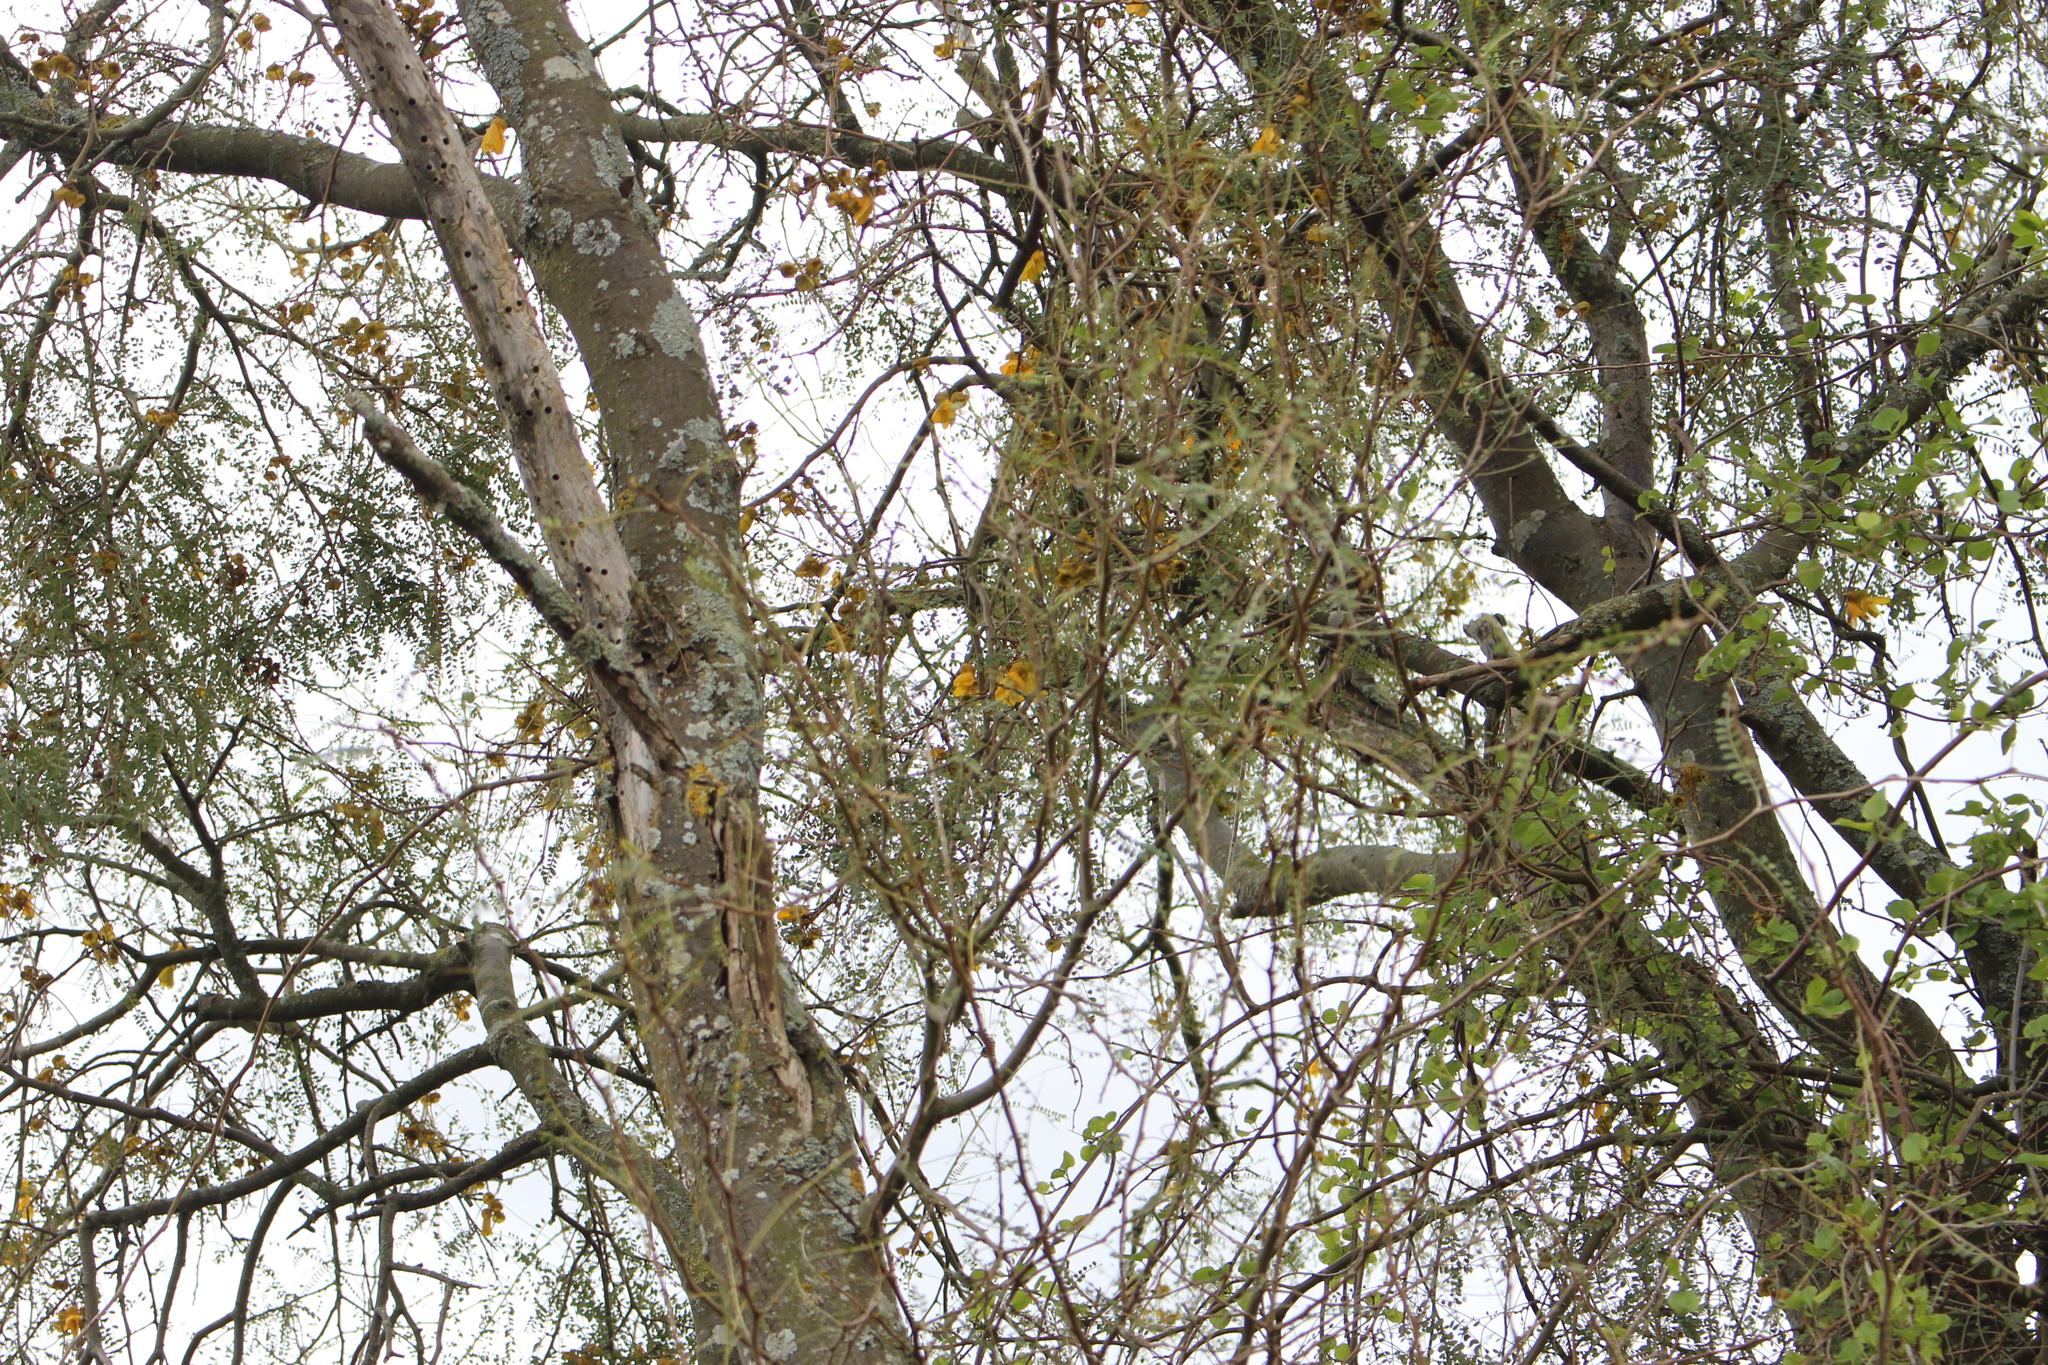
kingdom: Plantae
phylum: Tracheophyta
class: Magnoliopsida
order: Fabales
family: Fabaceae
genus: Sophora
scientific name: Sophora microphylla
